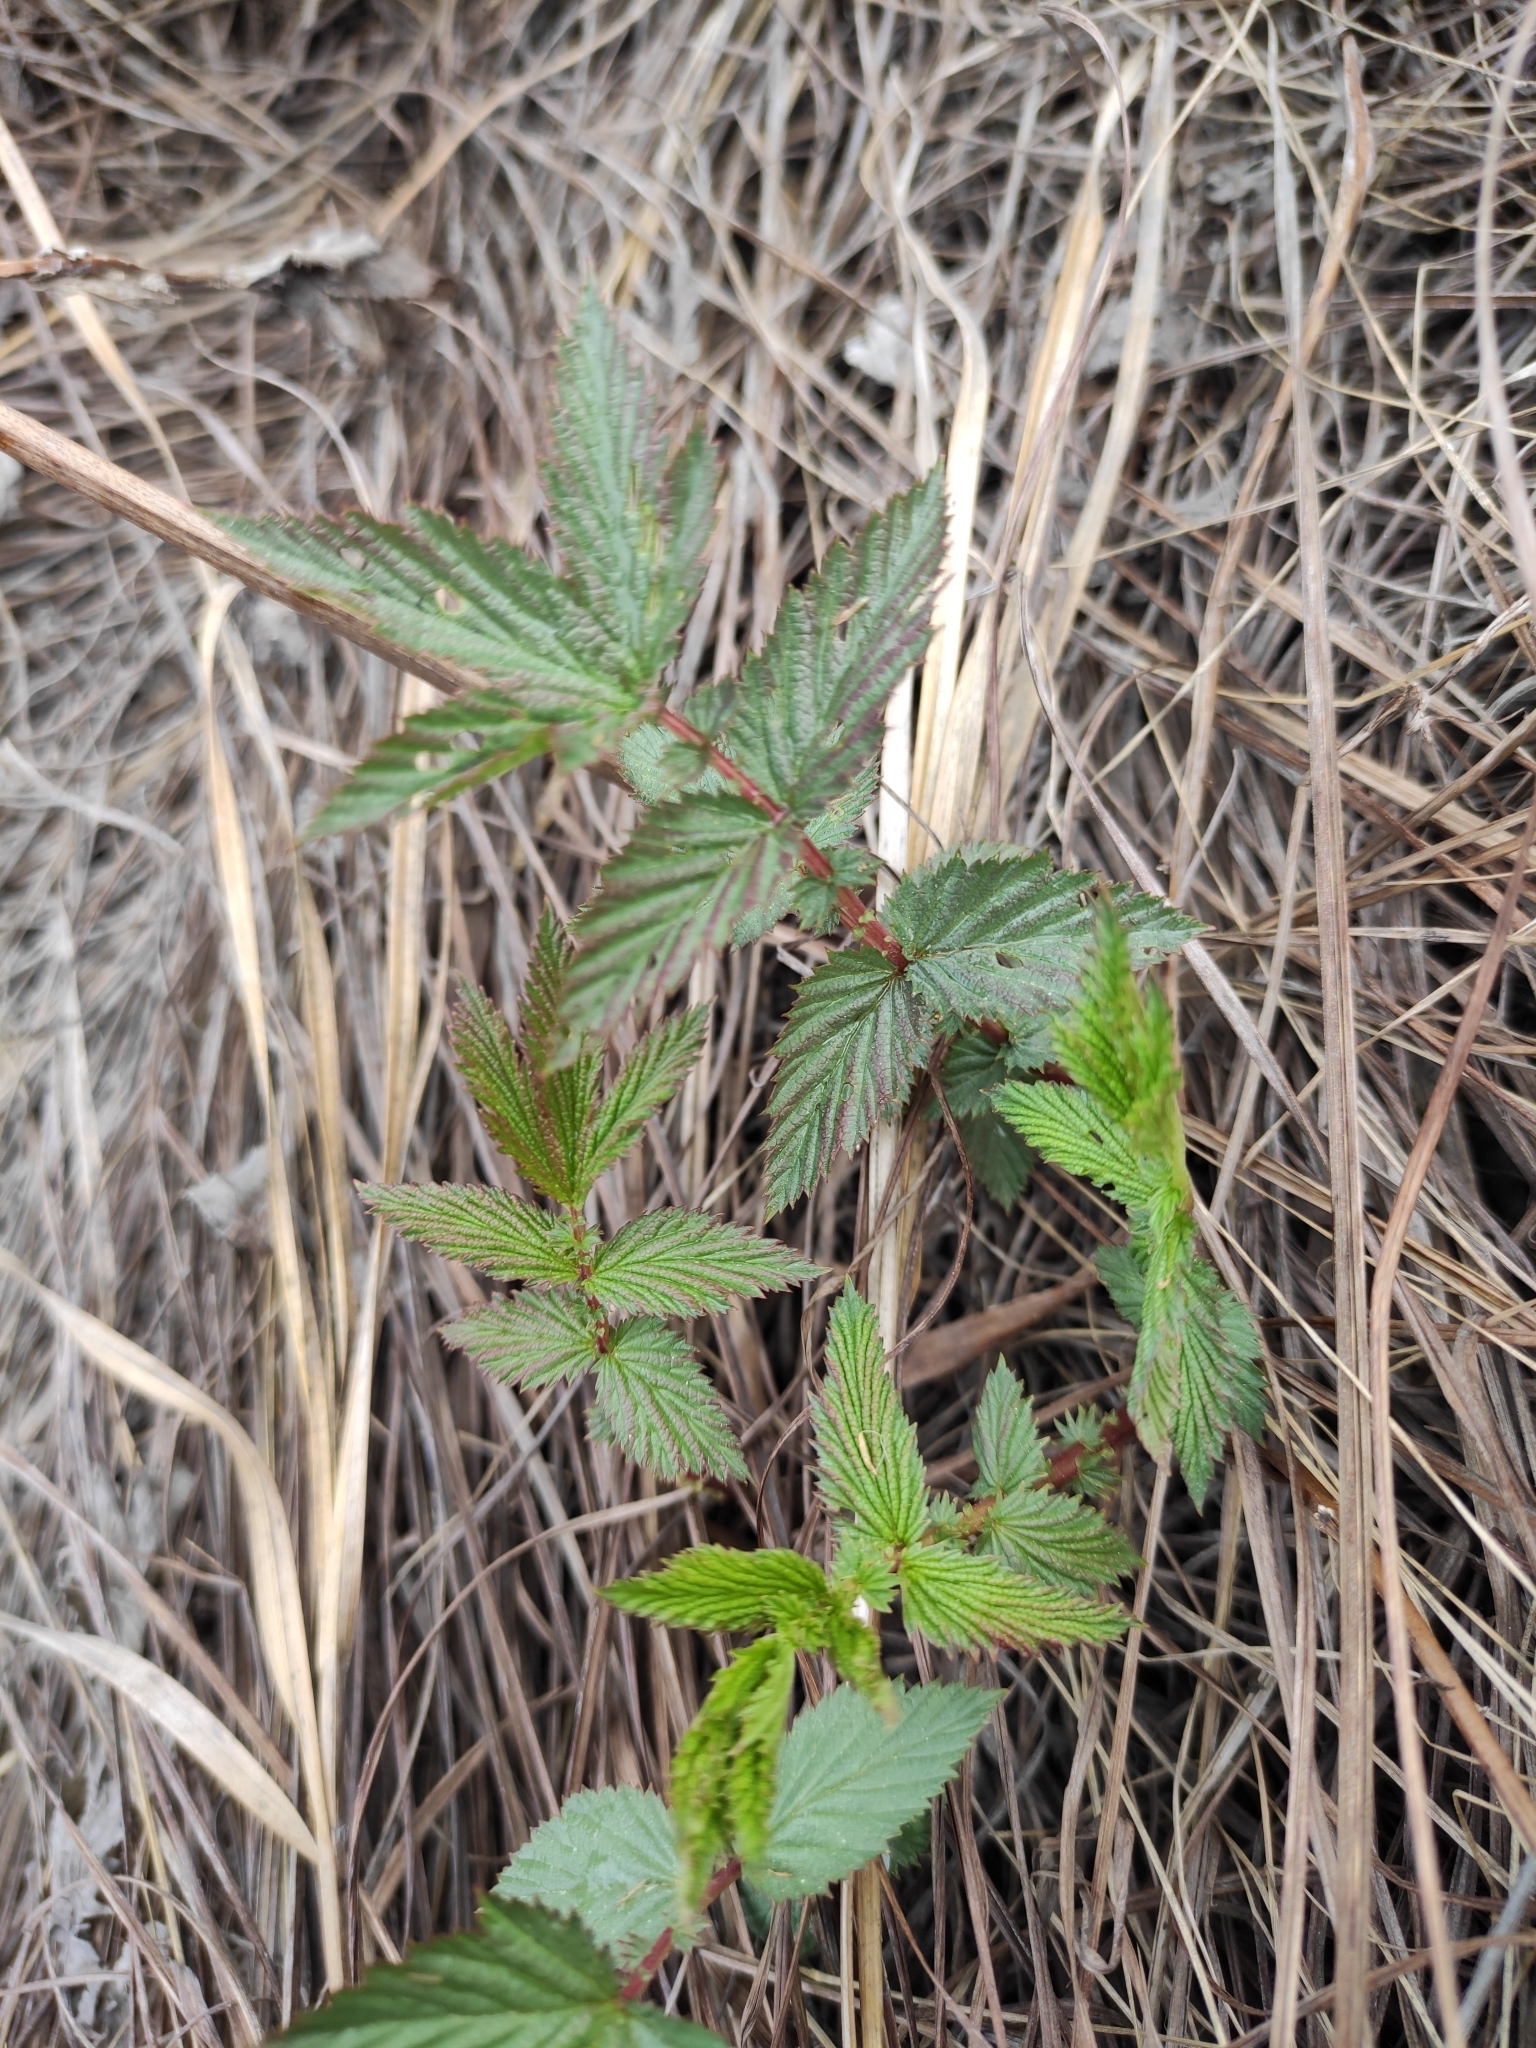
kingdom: Plantae
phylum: Tracheophyta
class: Magnoliopsida
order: Rosales
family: Rosaceae
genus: Filipendula
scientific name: Filipendula ulmaria
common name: Meadowsweet
